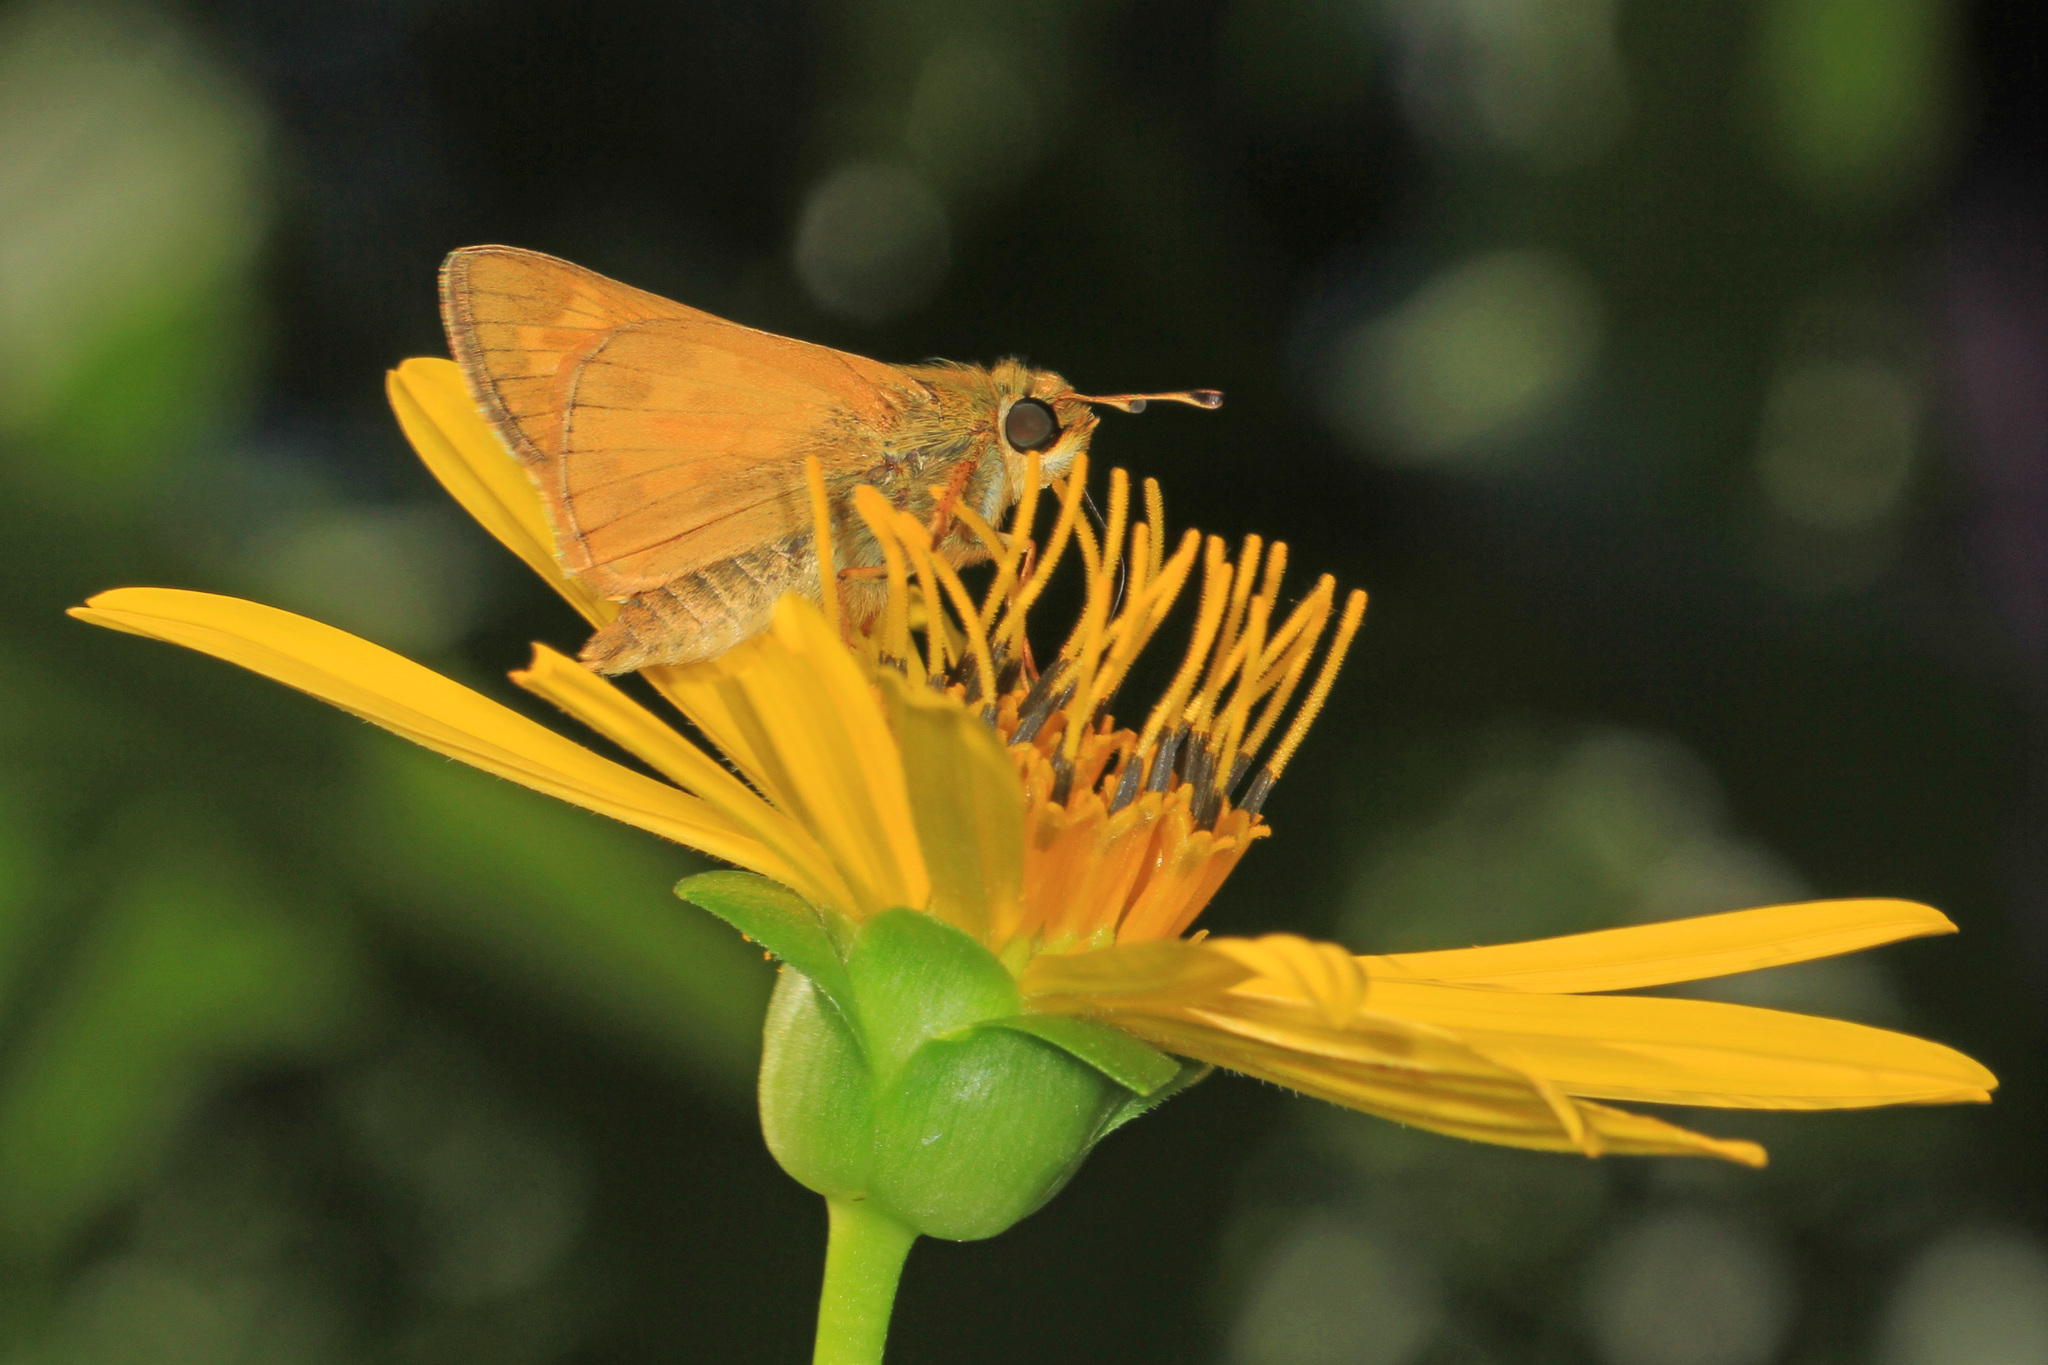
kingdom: Animalia
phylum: Arthropoda
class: Insecta
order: Lepidoptera
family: Hesperiidae
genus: Atalopedes
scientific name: Atalopedes
